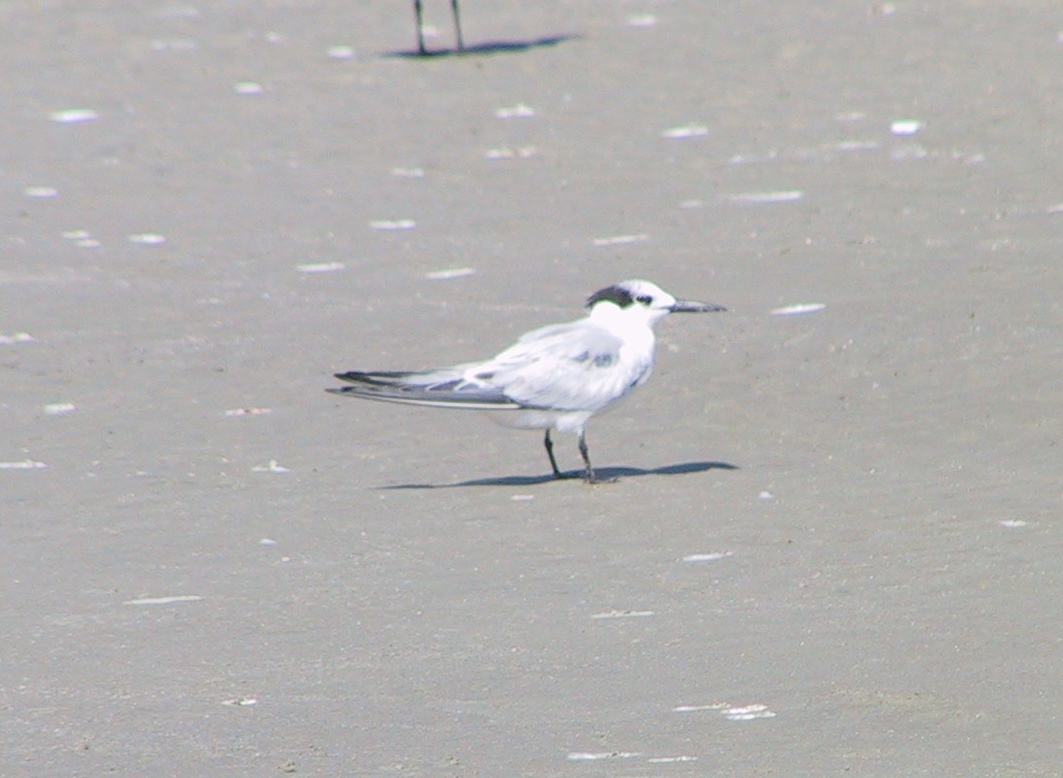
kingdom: Animalia
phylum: Chordata
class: Aves
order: Charadriiformes
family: Laridae
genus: Thalasseus
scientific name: Thalasseus sandvicensis
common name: Sandwich tern
